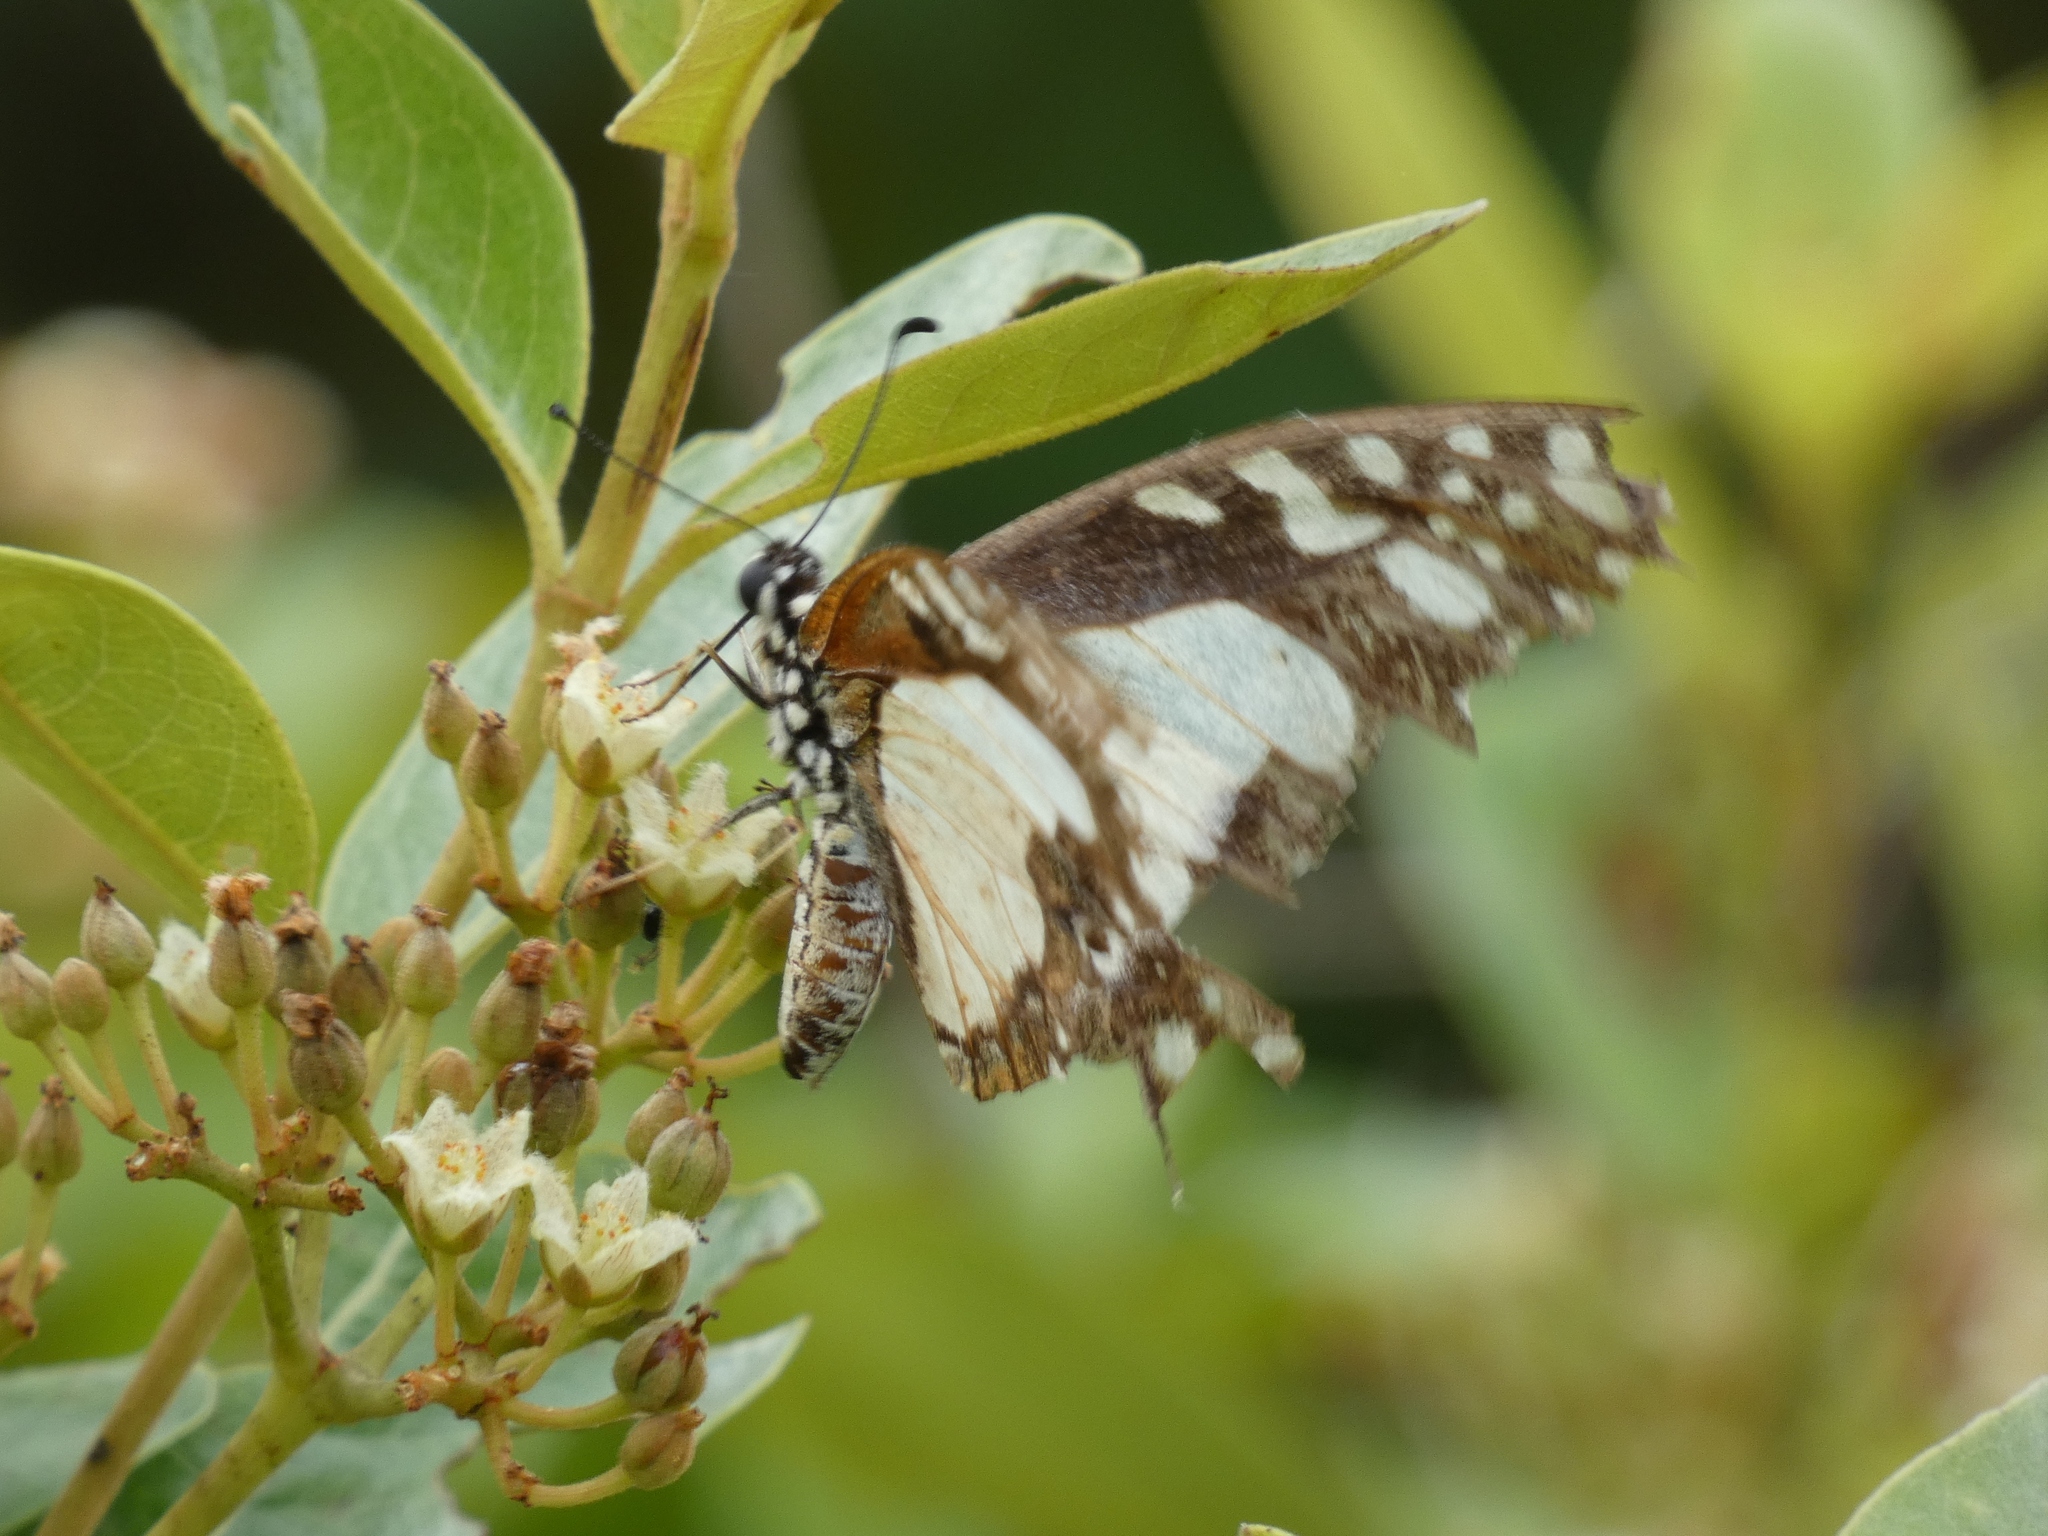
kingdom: Animalia
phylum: Arthropoda
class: Insecta
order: Lepidoptera
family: Papilionidae
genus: Graphium
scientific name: Graphium angolanus
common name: Angola white-lady swordtail
